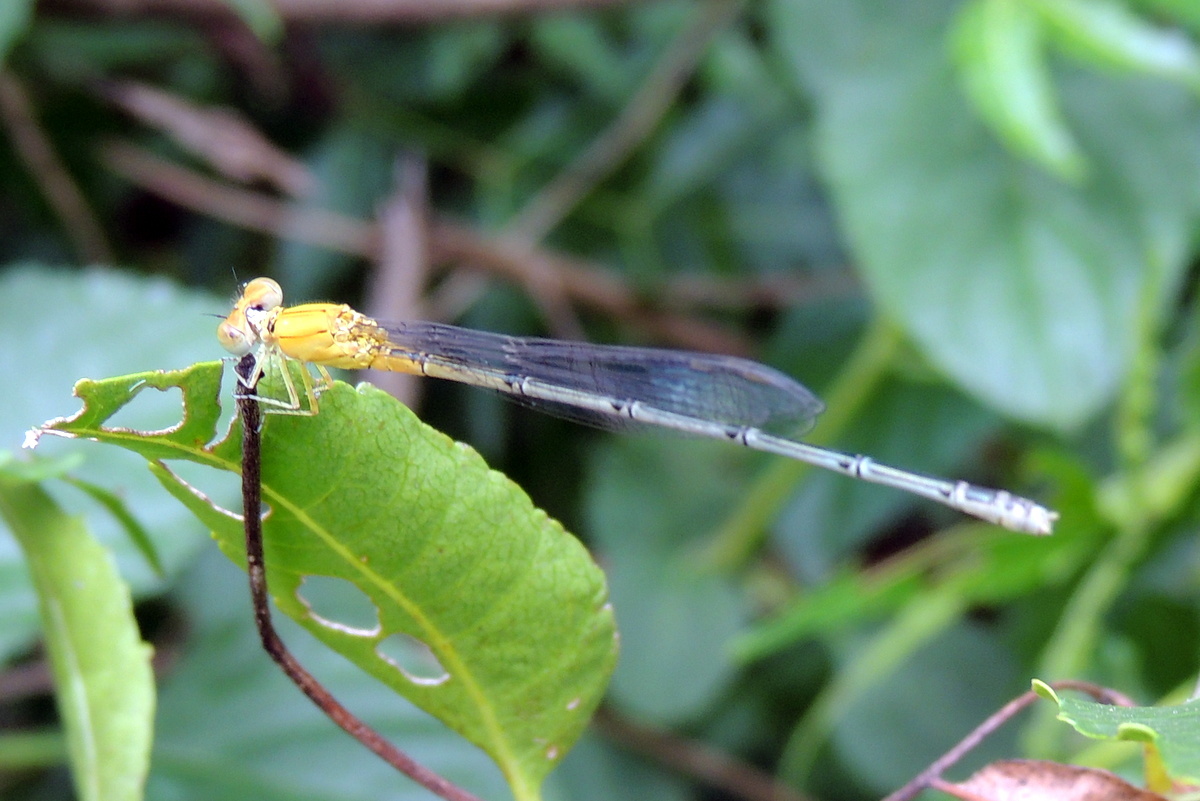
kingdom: Animalia
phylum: Arthropoda
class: Insecta
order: Odonata
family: Coenagrionidae
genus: Pseudagrion
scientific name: Pseudagrion decorum
